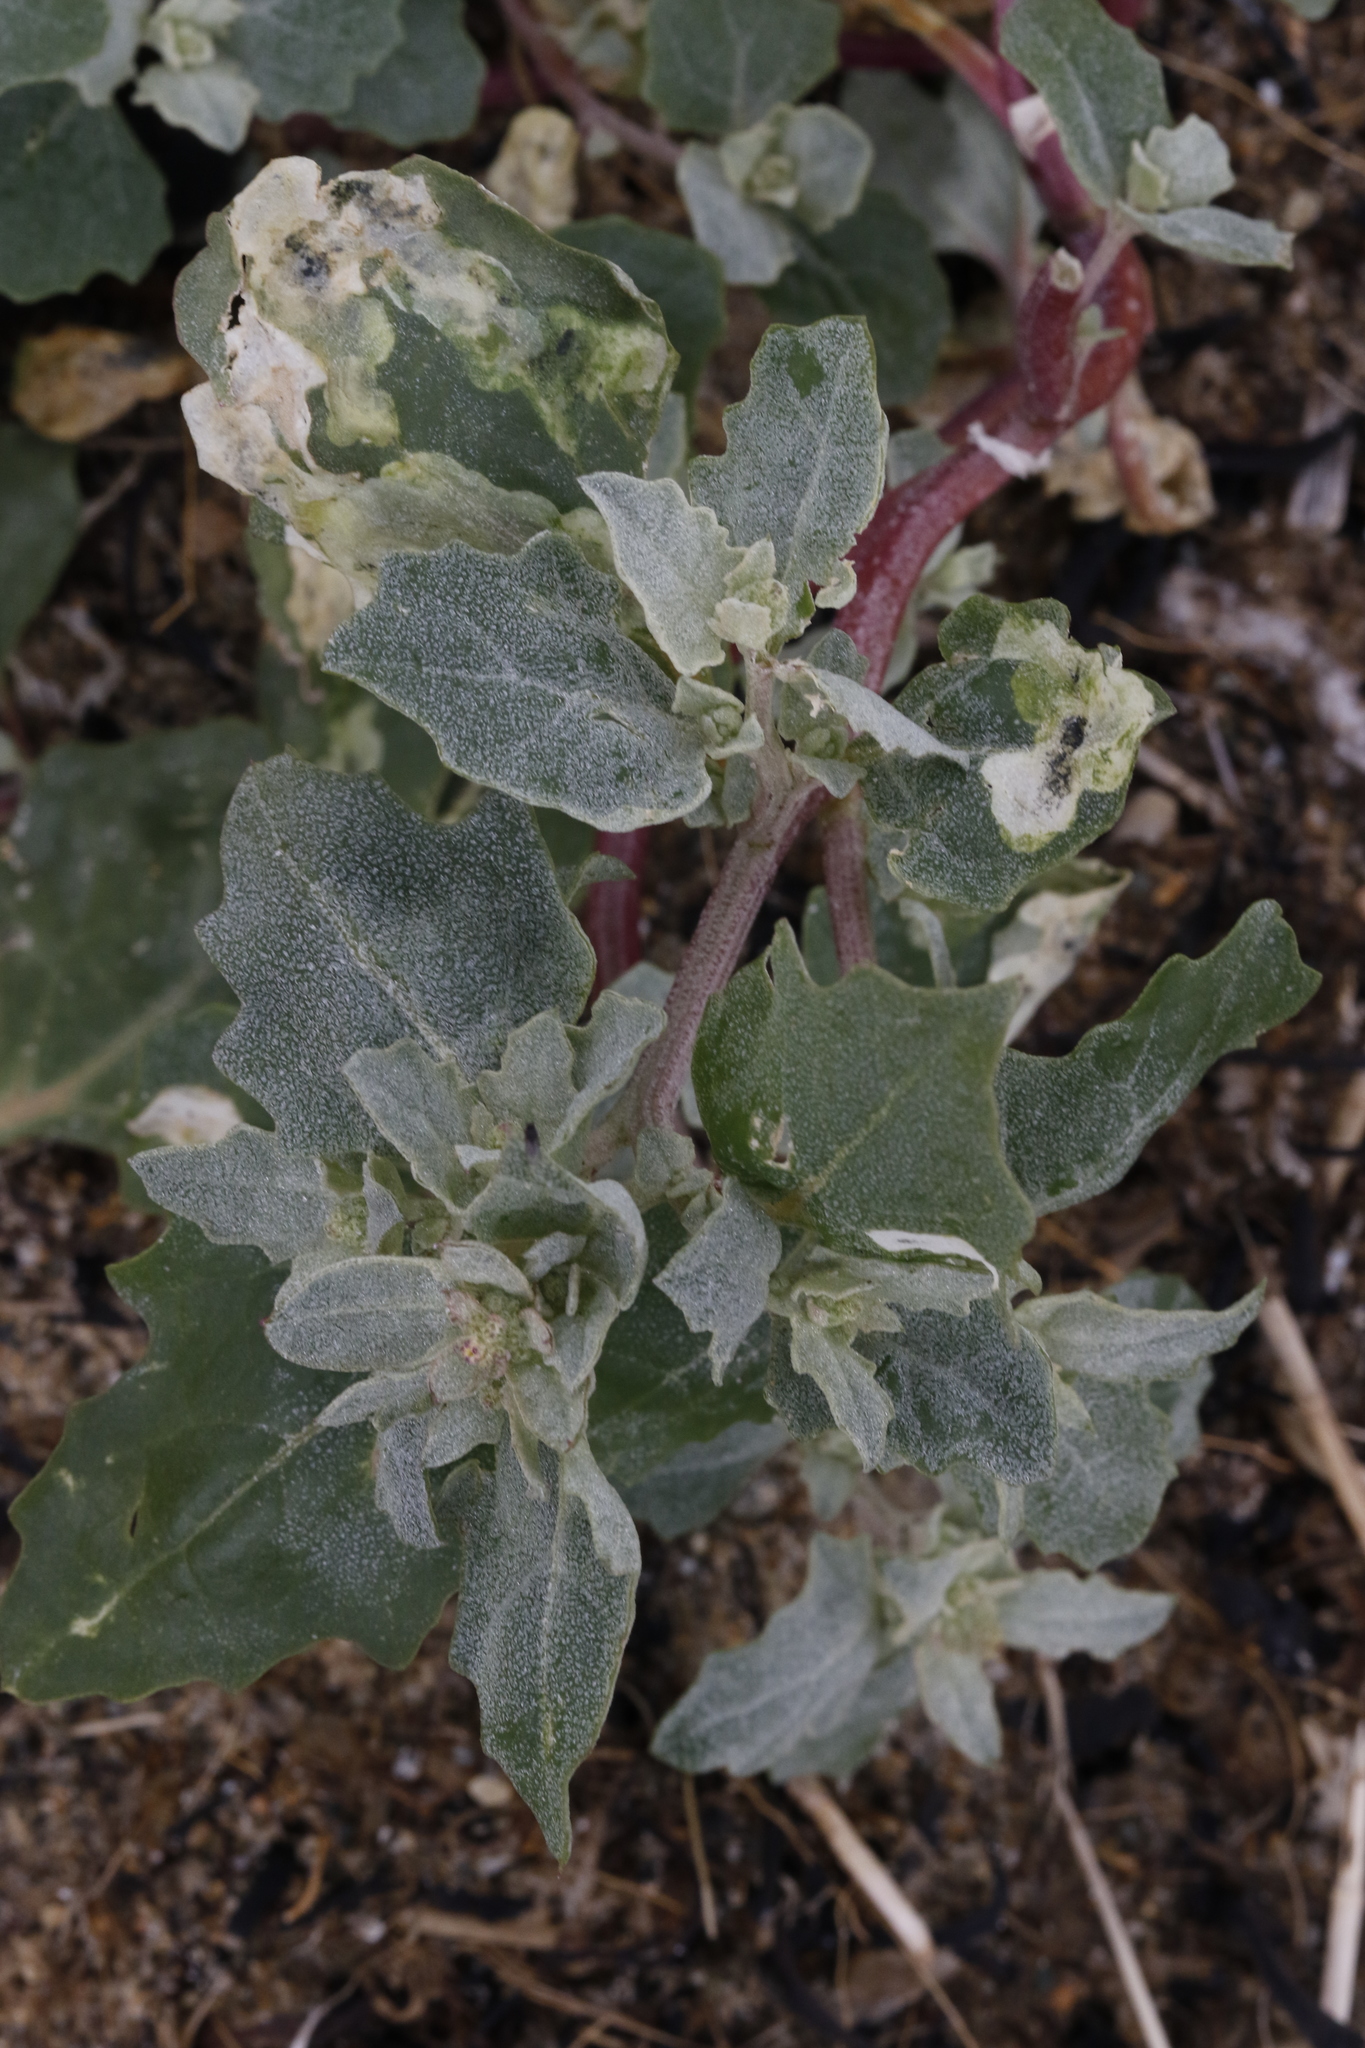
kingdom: Plantae
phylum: Tracheophyta
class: Magnoliopsida
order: Caryophyllales
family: Amaranthaceae
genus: Atriplex
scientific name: Atriplex laciniata
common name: Frosted orache
